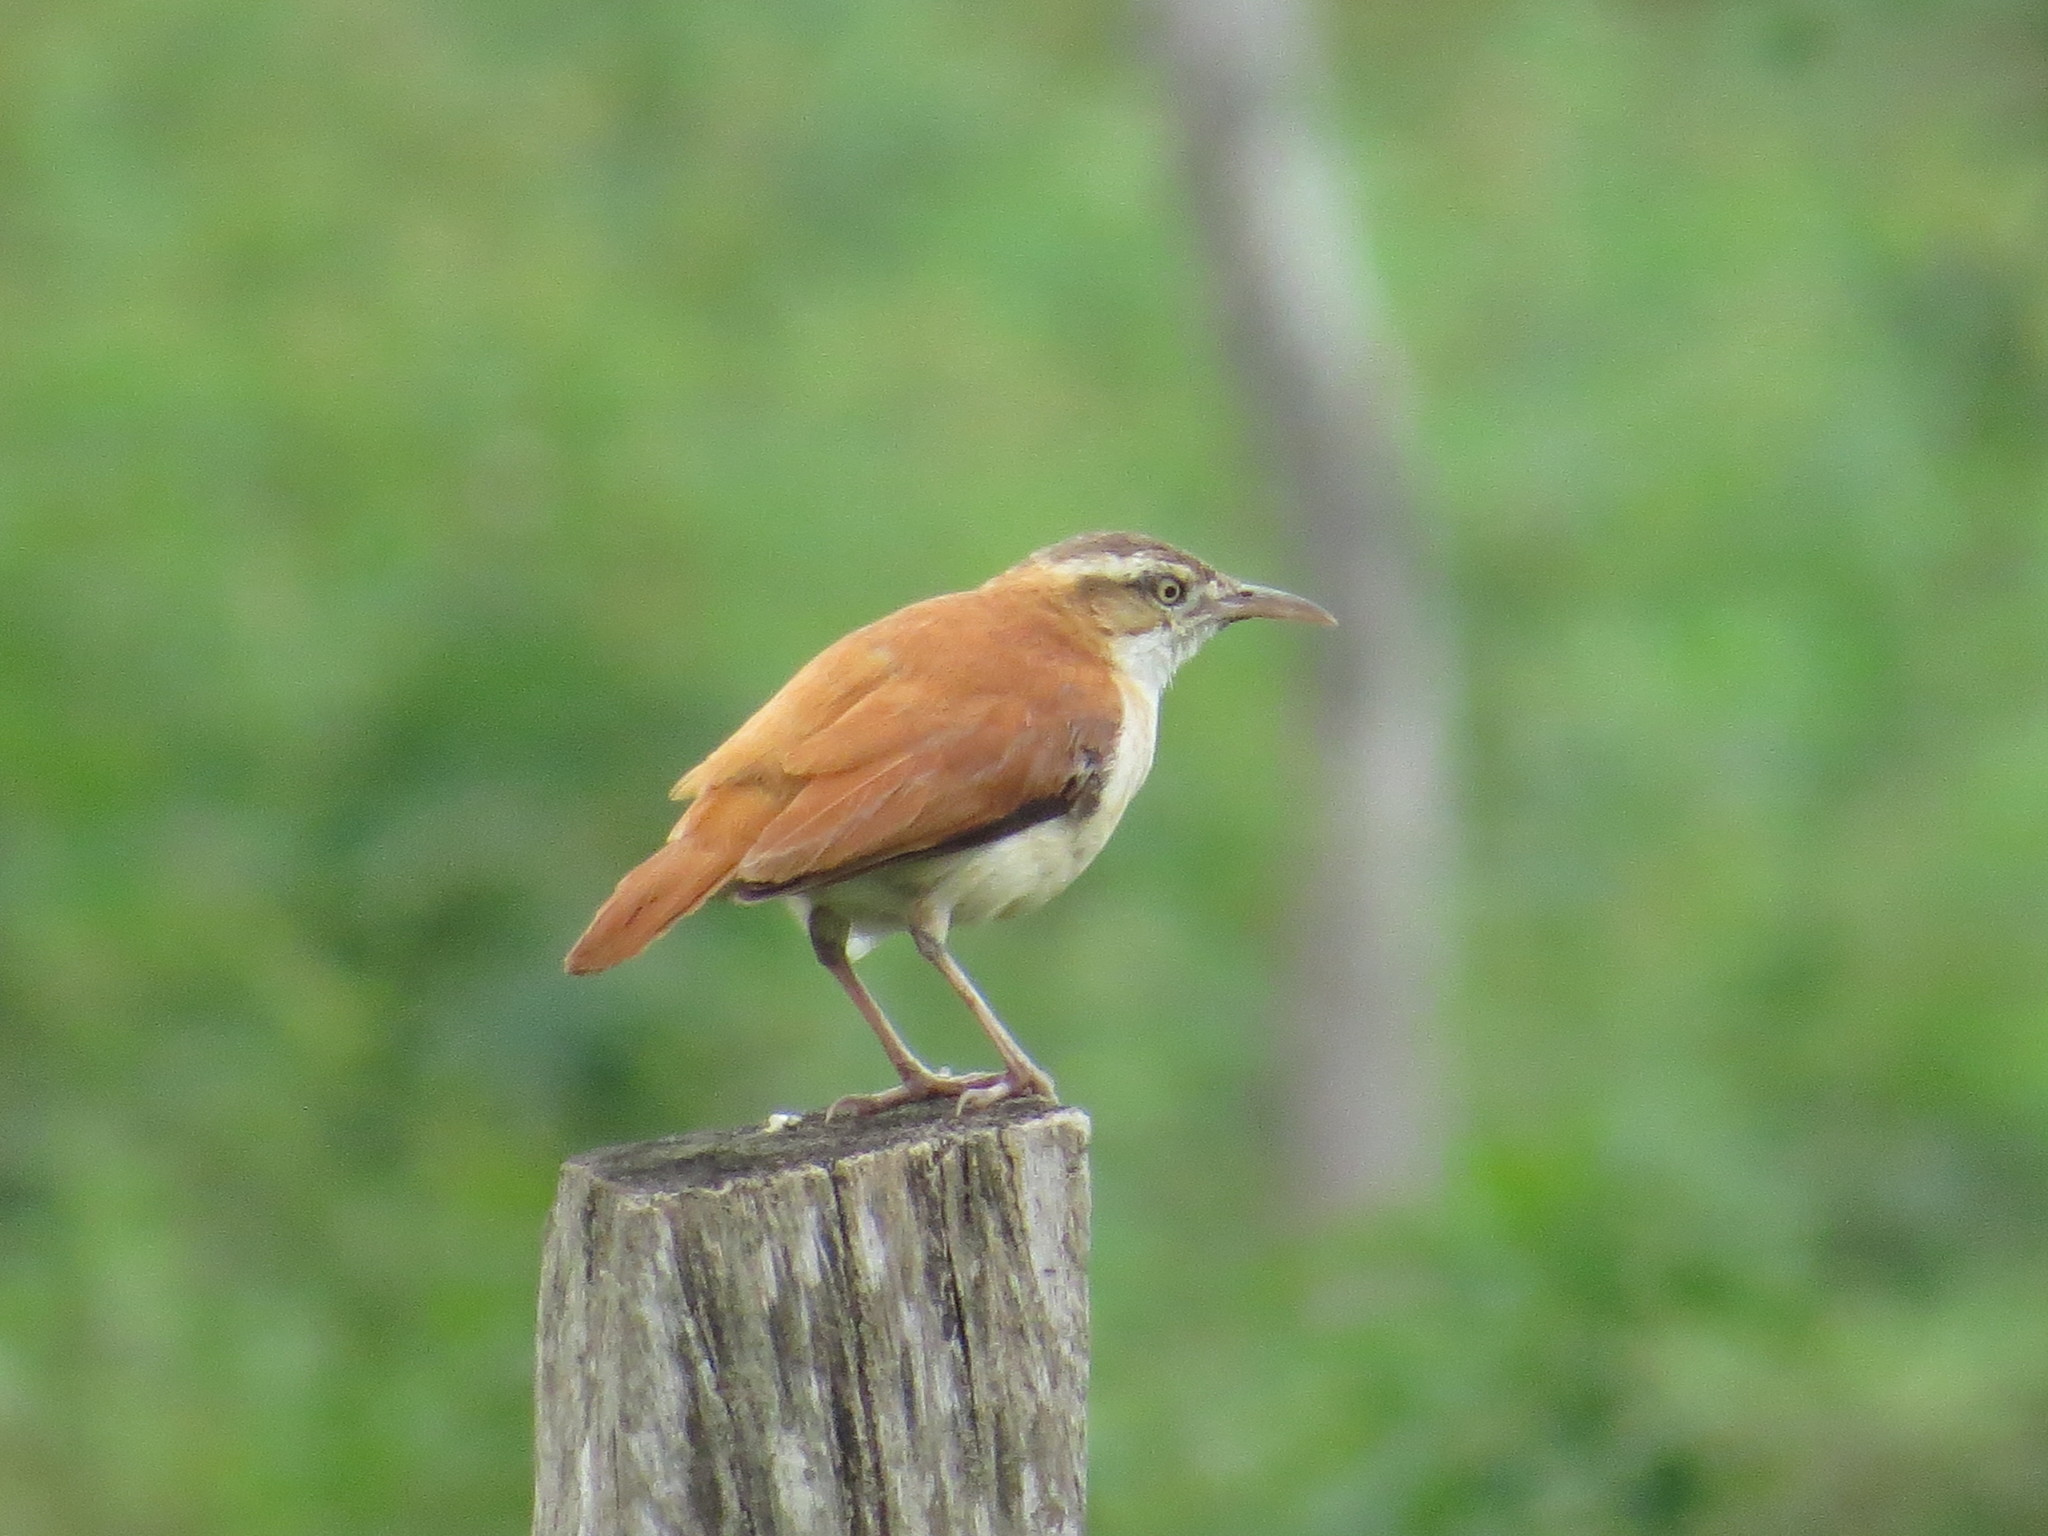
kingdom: Animalia
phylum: Chordata
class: Aves
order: Passeriformes
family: Furnariidae
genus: Furnarius
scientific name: Furnarius leucopus
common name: Pale-legged hornero
